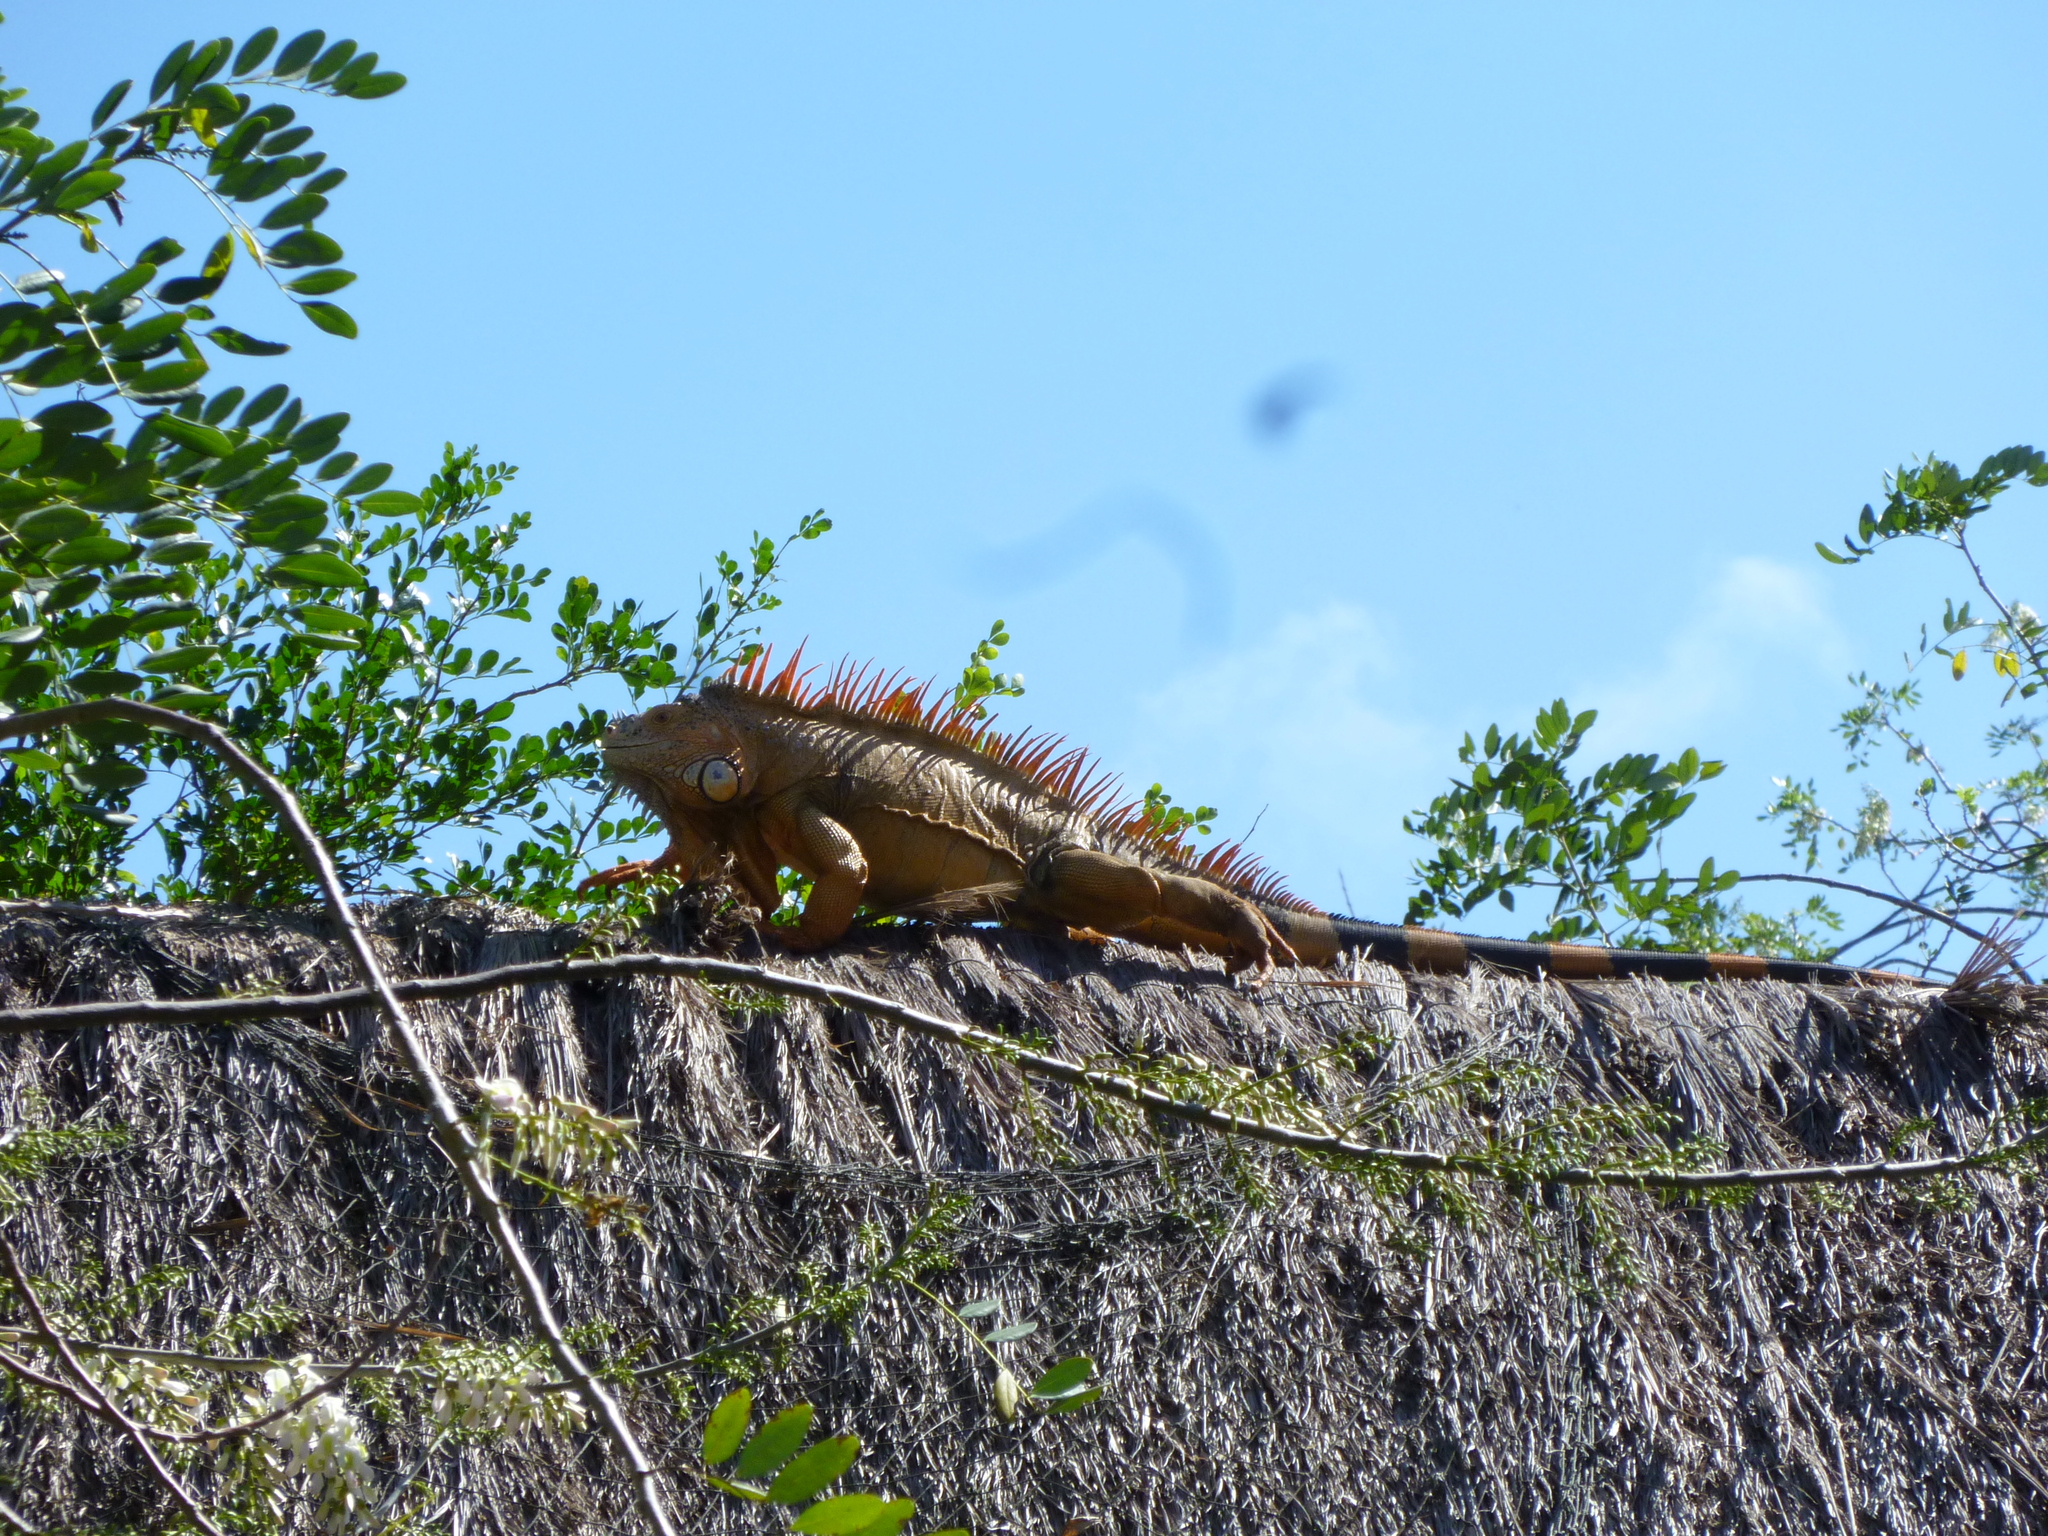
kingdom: Animalia
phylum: Chordata
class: Squamata
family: Iguanidae
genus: Iguana
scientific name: Iguana iguana
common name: Green iguana
